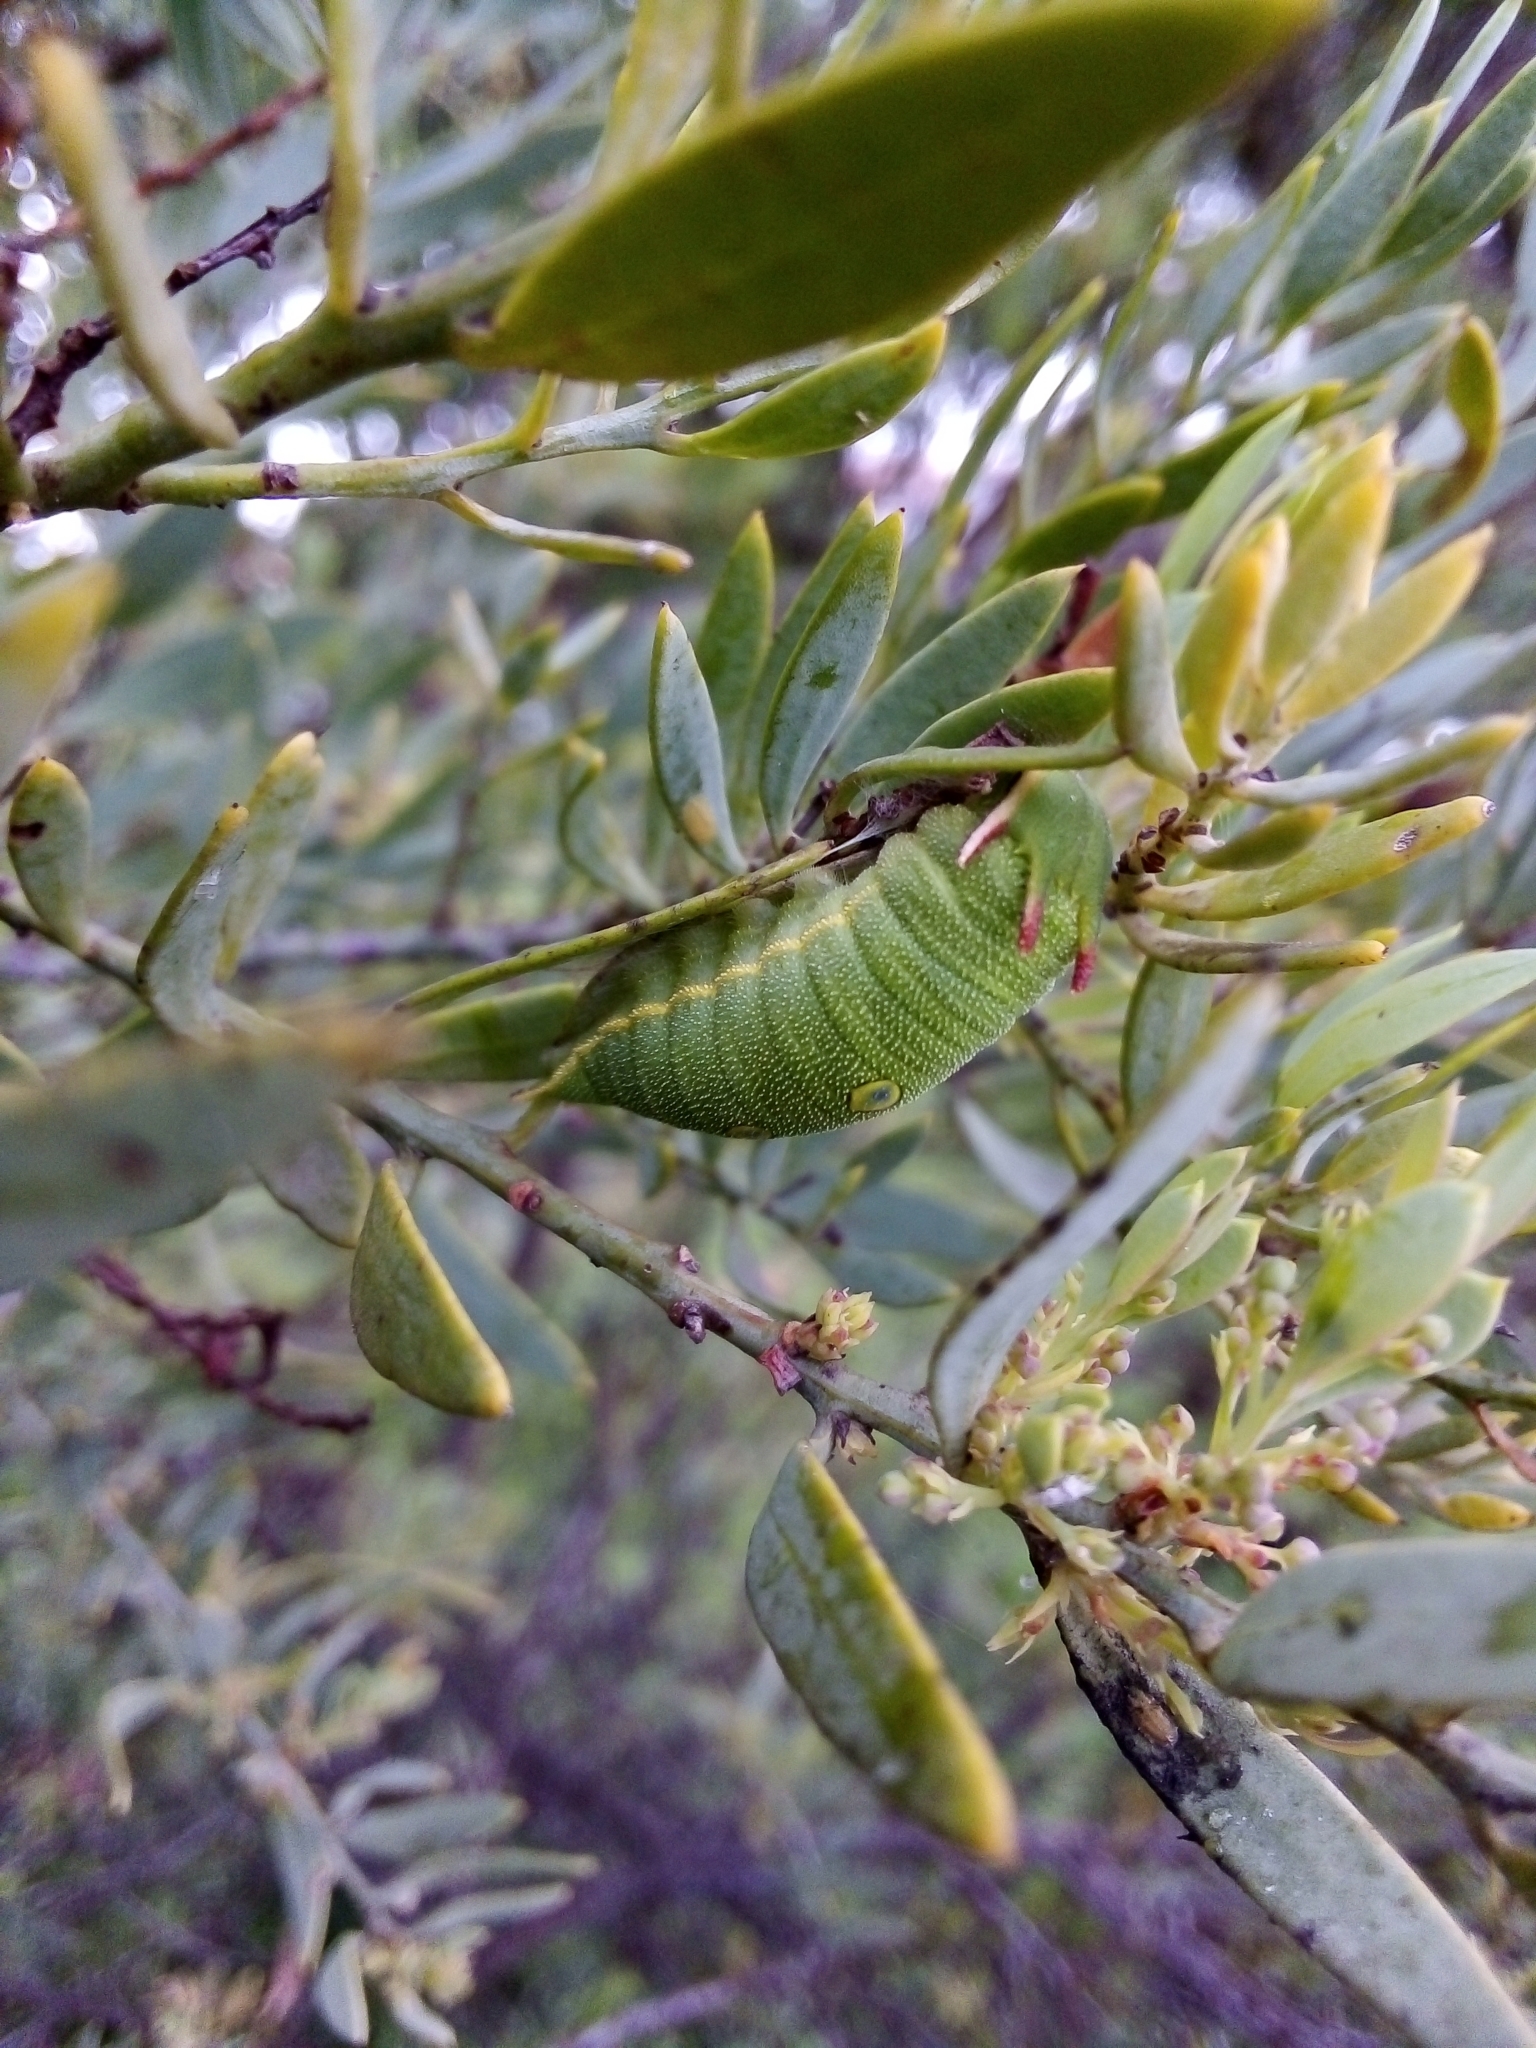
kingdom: Animalia
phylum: Arthropoda
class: Insecta
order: Lepidoptera
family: Nymphalidae
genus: Charaxes
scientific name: Charaxes jasius
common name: Two tailed pasha
